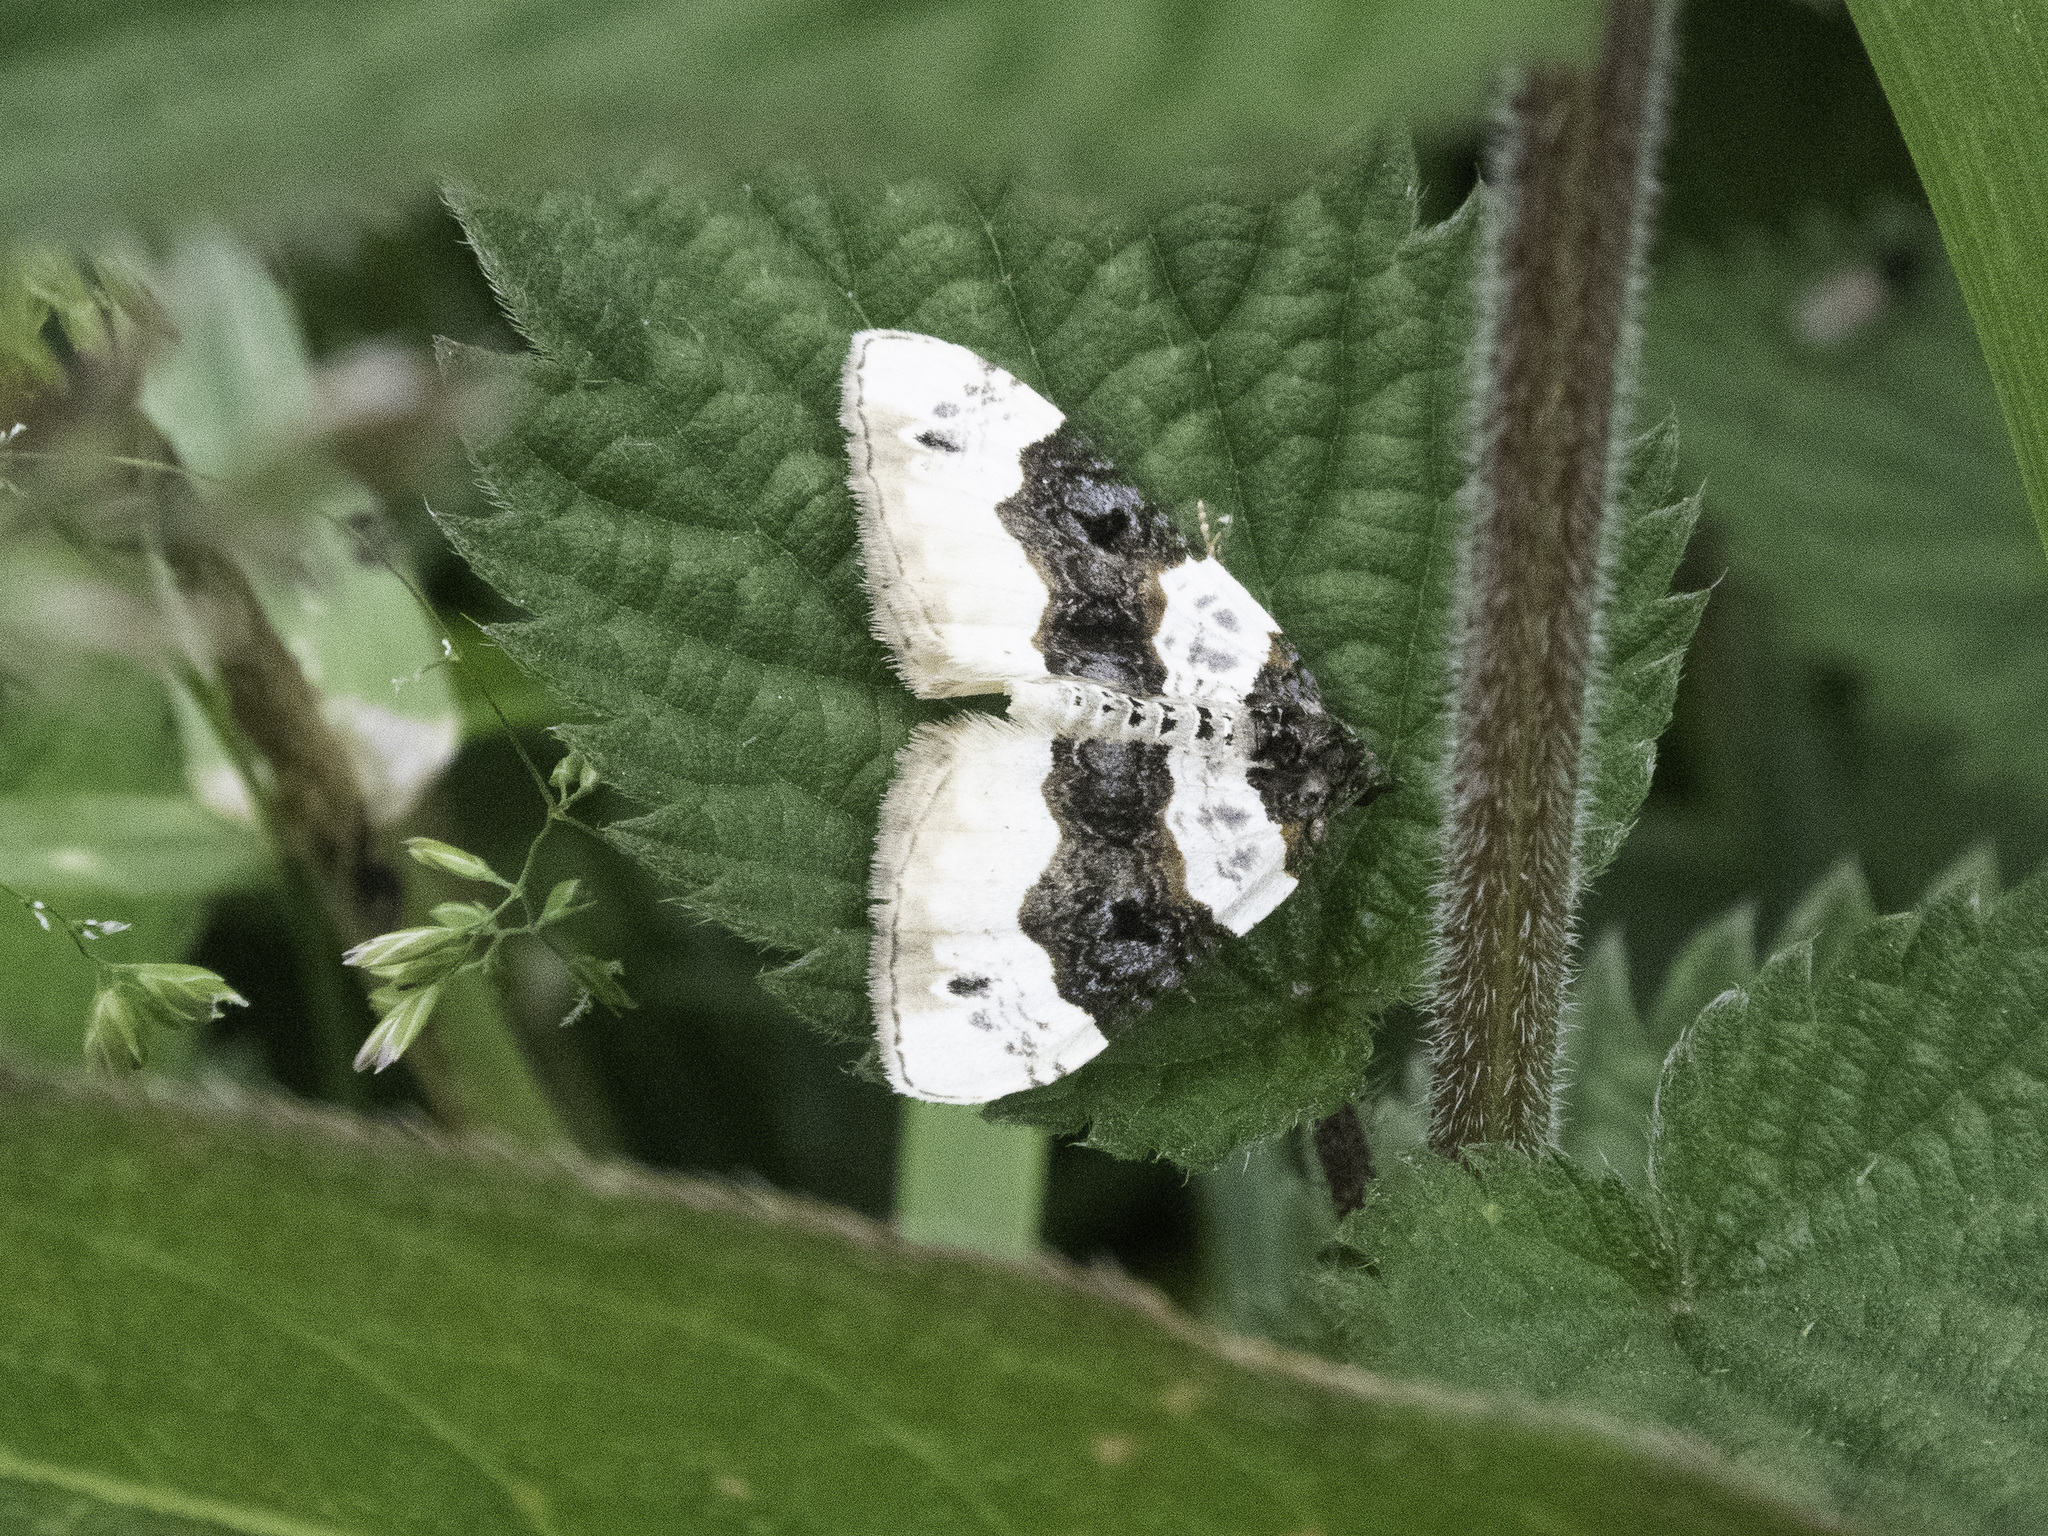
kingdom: Animalia
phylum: Arthropoda
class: Insecta
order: Lepidoptera
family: Geometridae
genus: Cosmorhoe
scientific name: Cosmorhoe ocellata
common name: Purple bar
